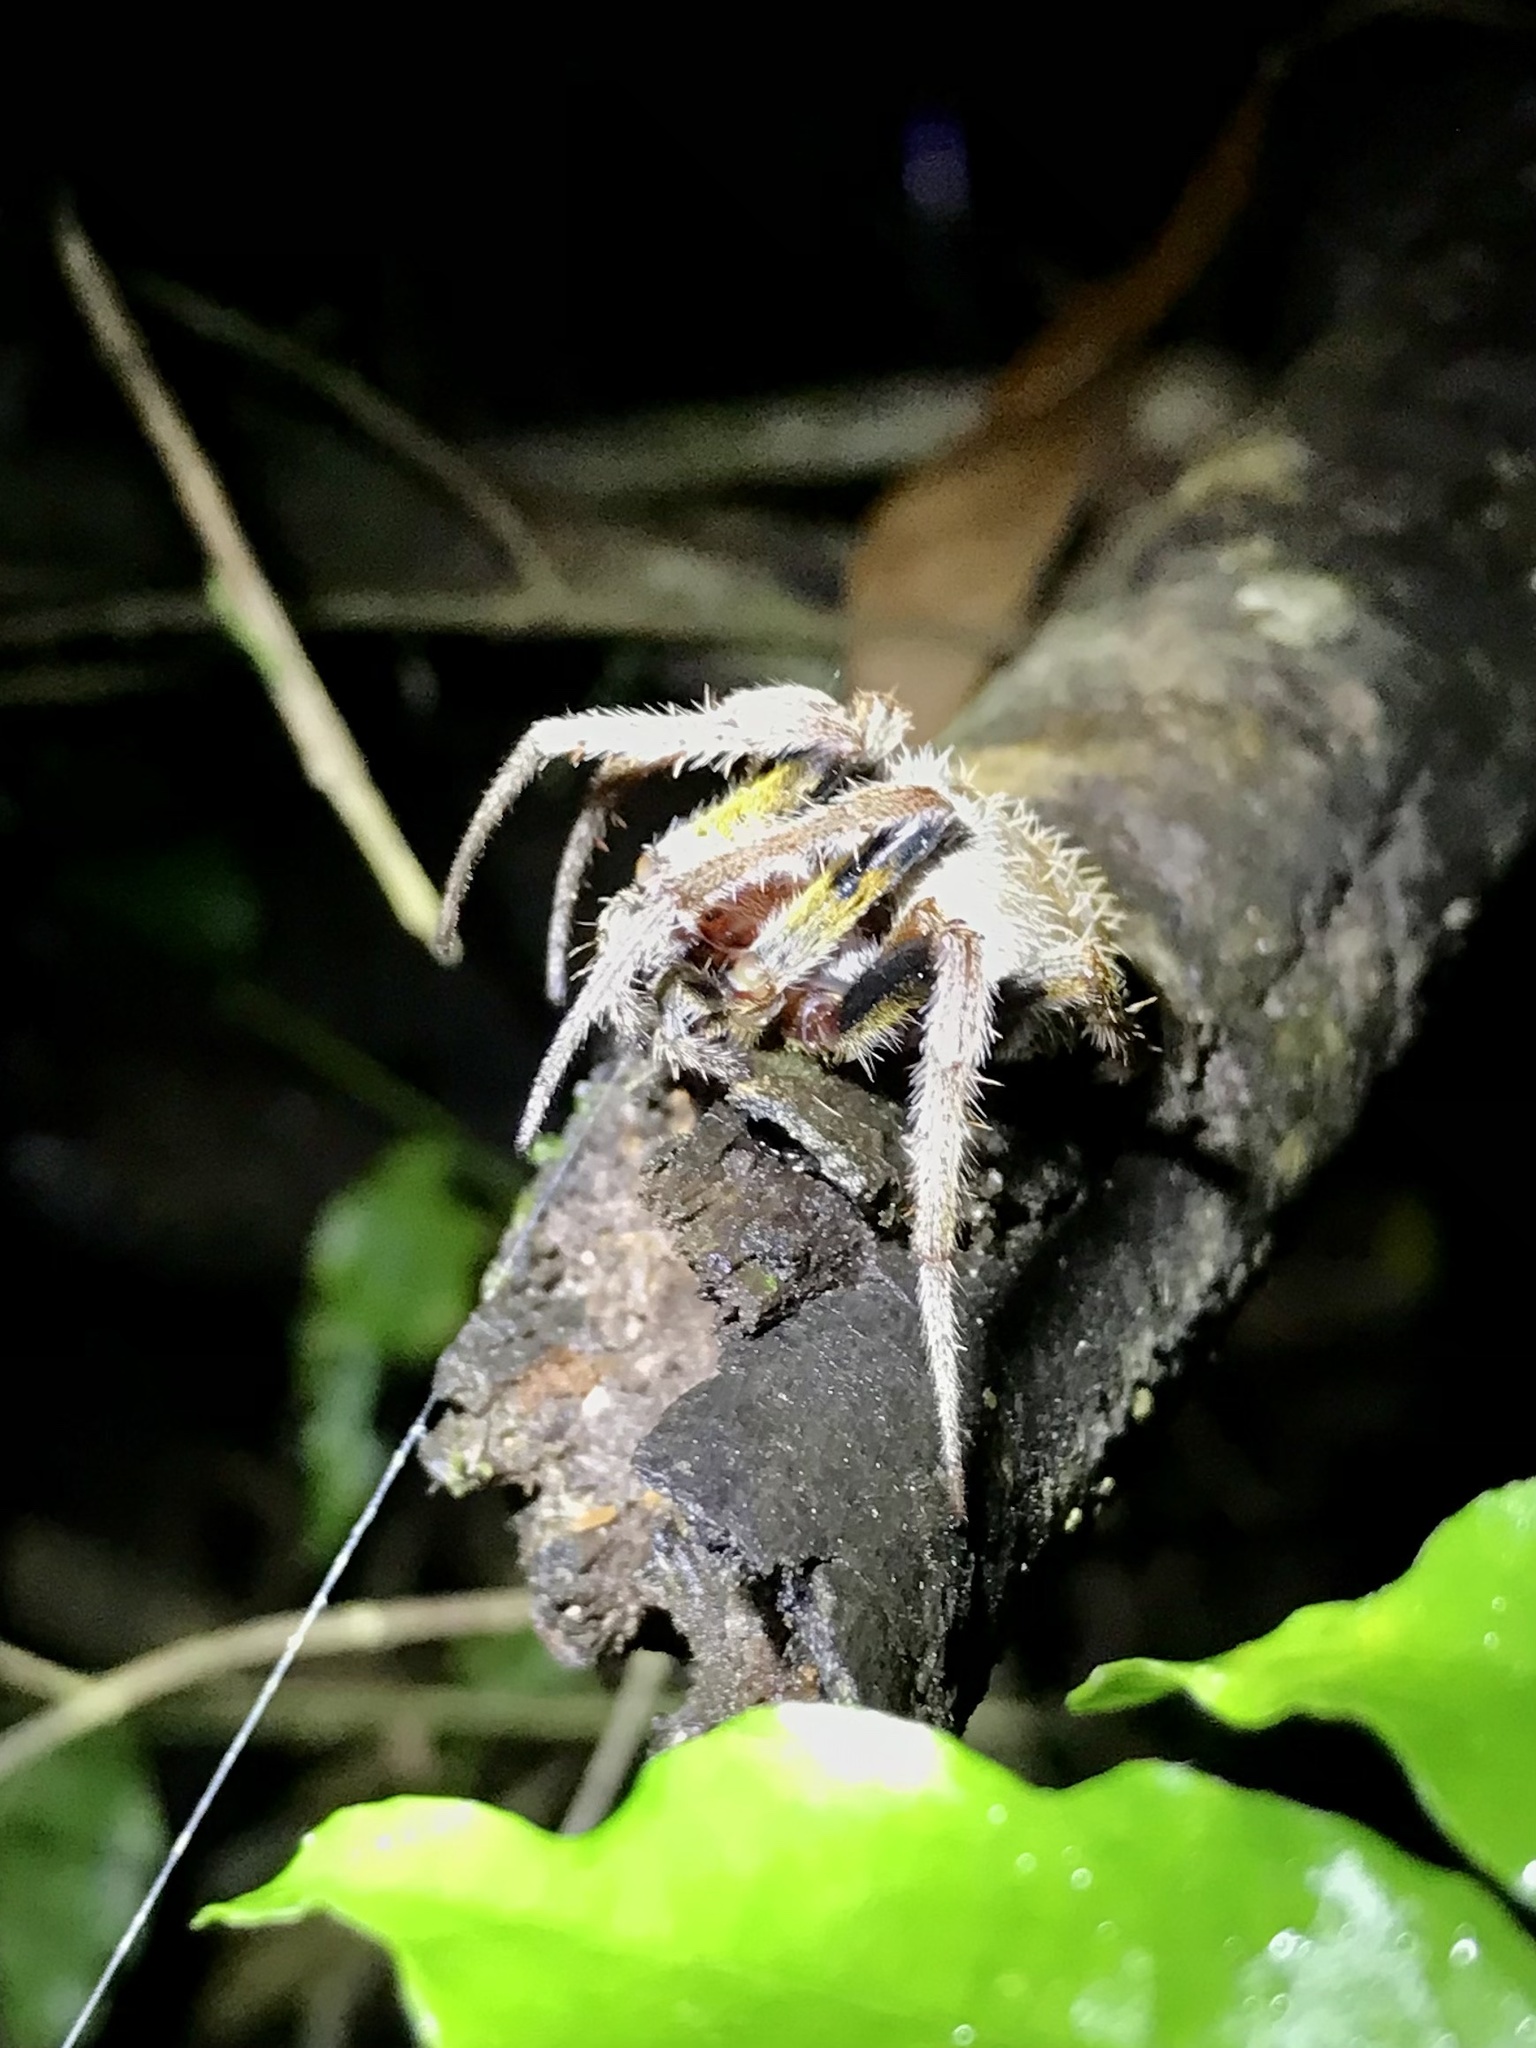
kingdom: Animalia
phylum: Arthropoda
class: Arachnida
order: Araneae
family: Araneidae
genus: Eriophora
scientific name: Eriophora ravilla
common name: Orb weavers
